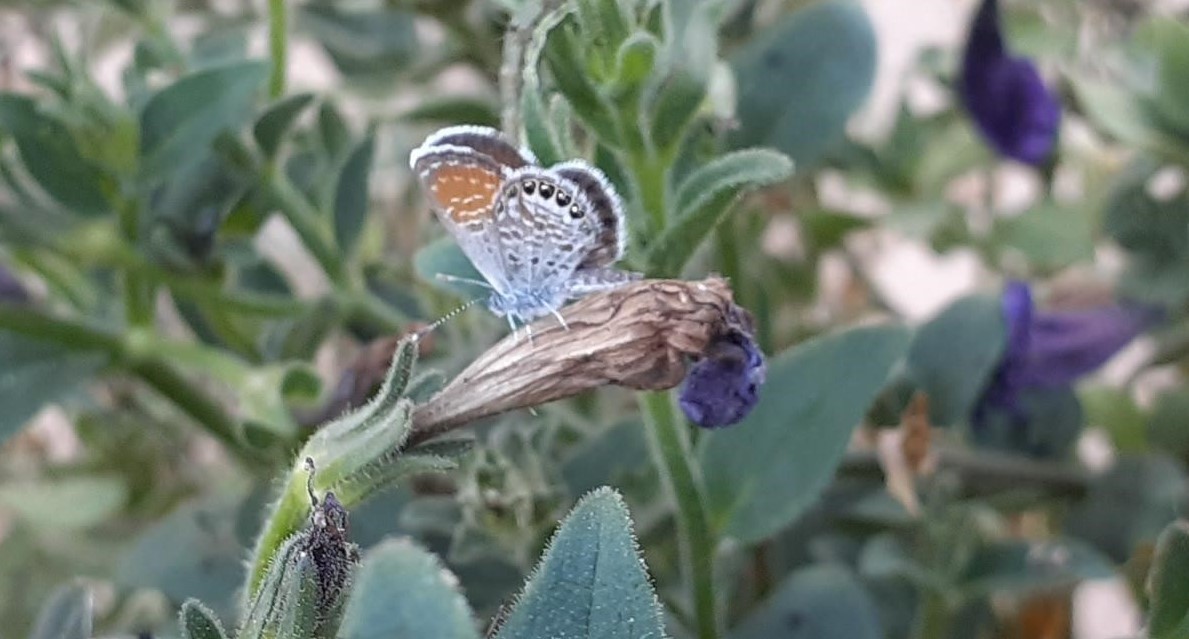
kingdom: Animalia
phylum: Arthropoda
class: Insecta
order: Lepidoptera
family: Lycaenidae
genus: Brephidium
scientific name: Brephidium exilis
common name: Pygmy blue
